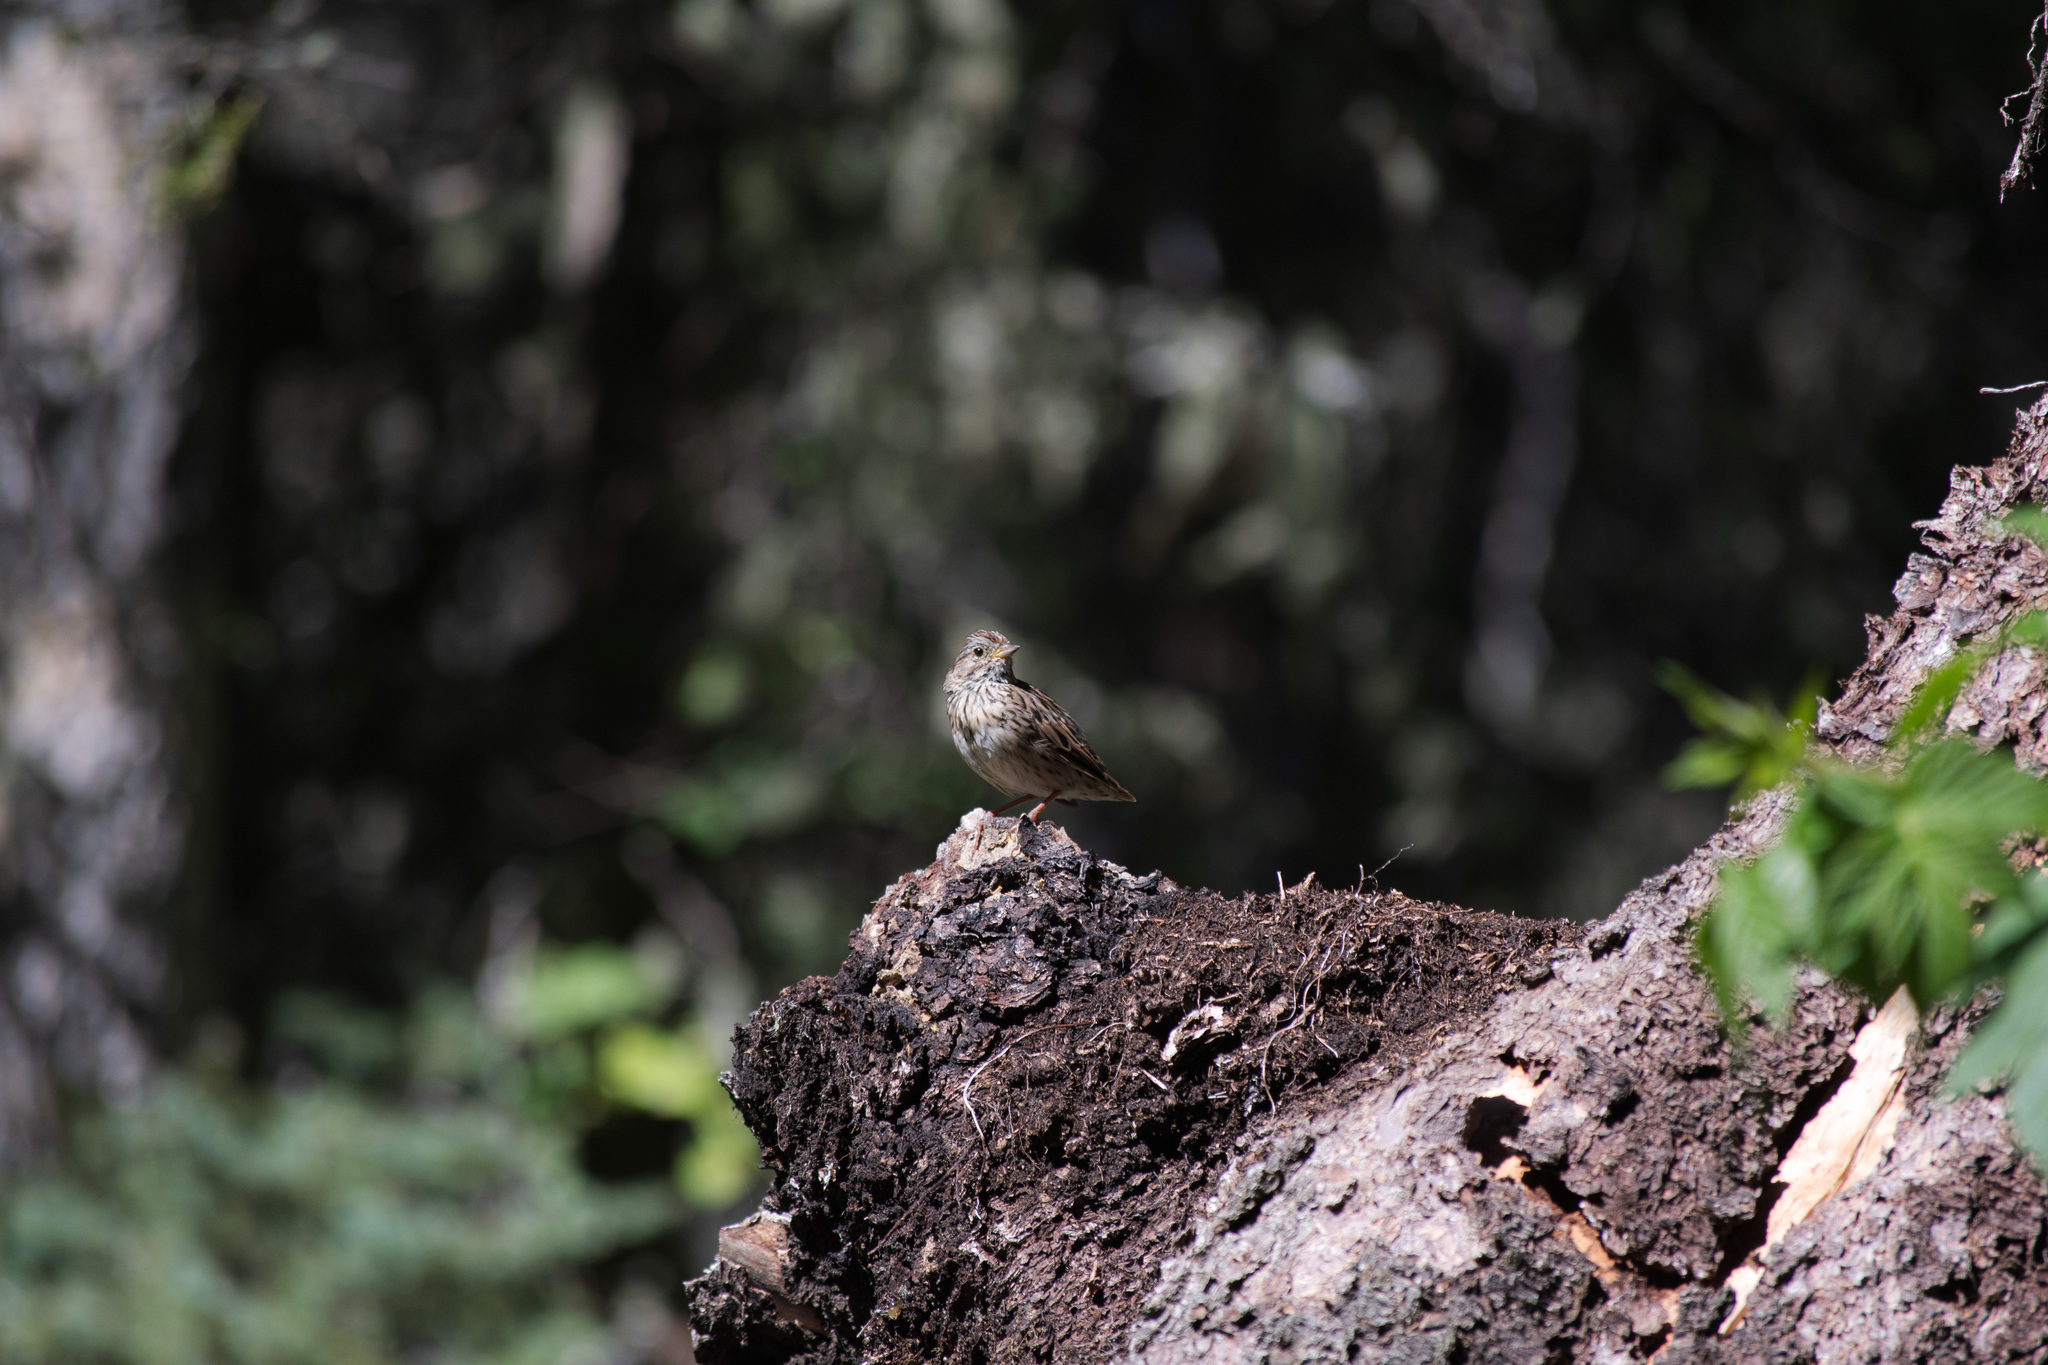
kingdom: Animalia
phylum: Chordata
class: Aves
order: Passeriformes
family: Passerellidae
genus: Melospiza
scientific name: Melospiza lincolnii
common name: Lincoln's sparrow
